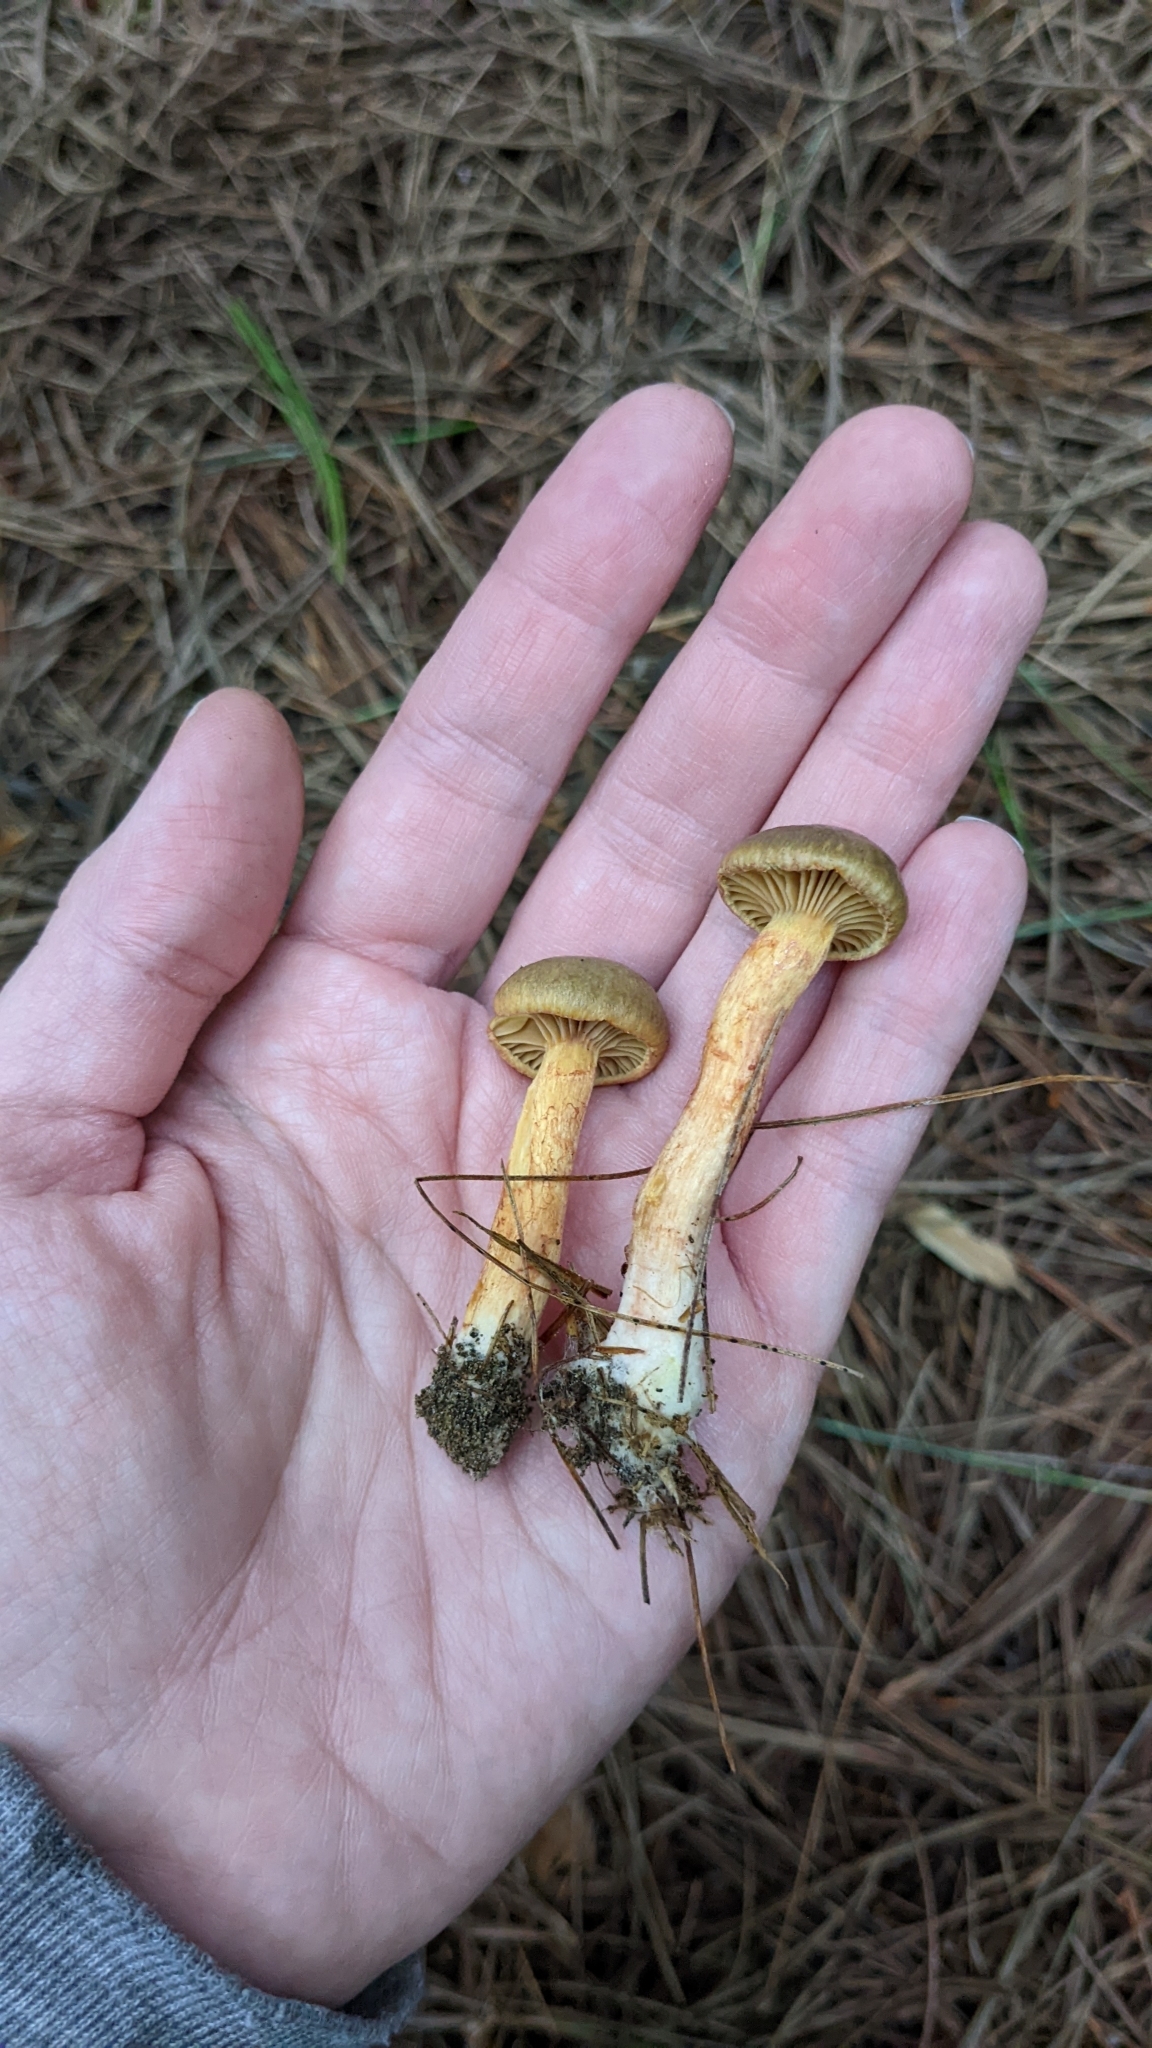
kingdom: Fungi
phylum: Basidiomycota
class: Agaricomycetes
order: Boletales
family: Gomphidiaceae
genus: Chroogomphus
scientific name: Chroogomphus ochraceus
